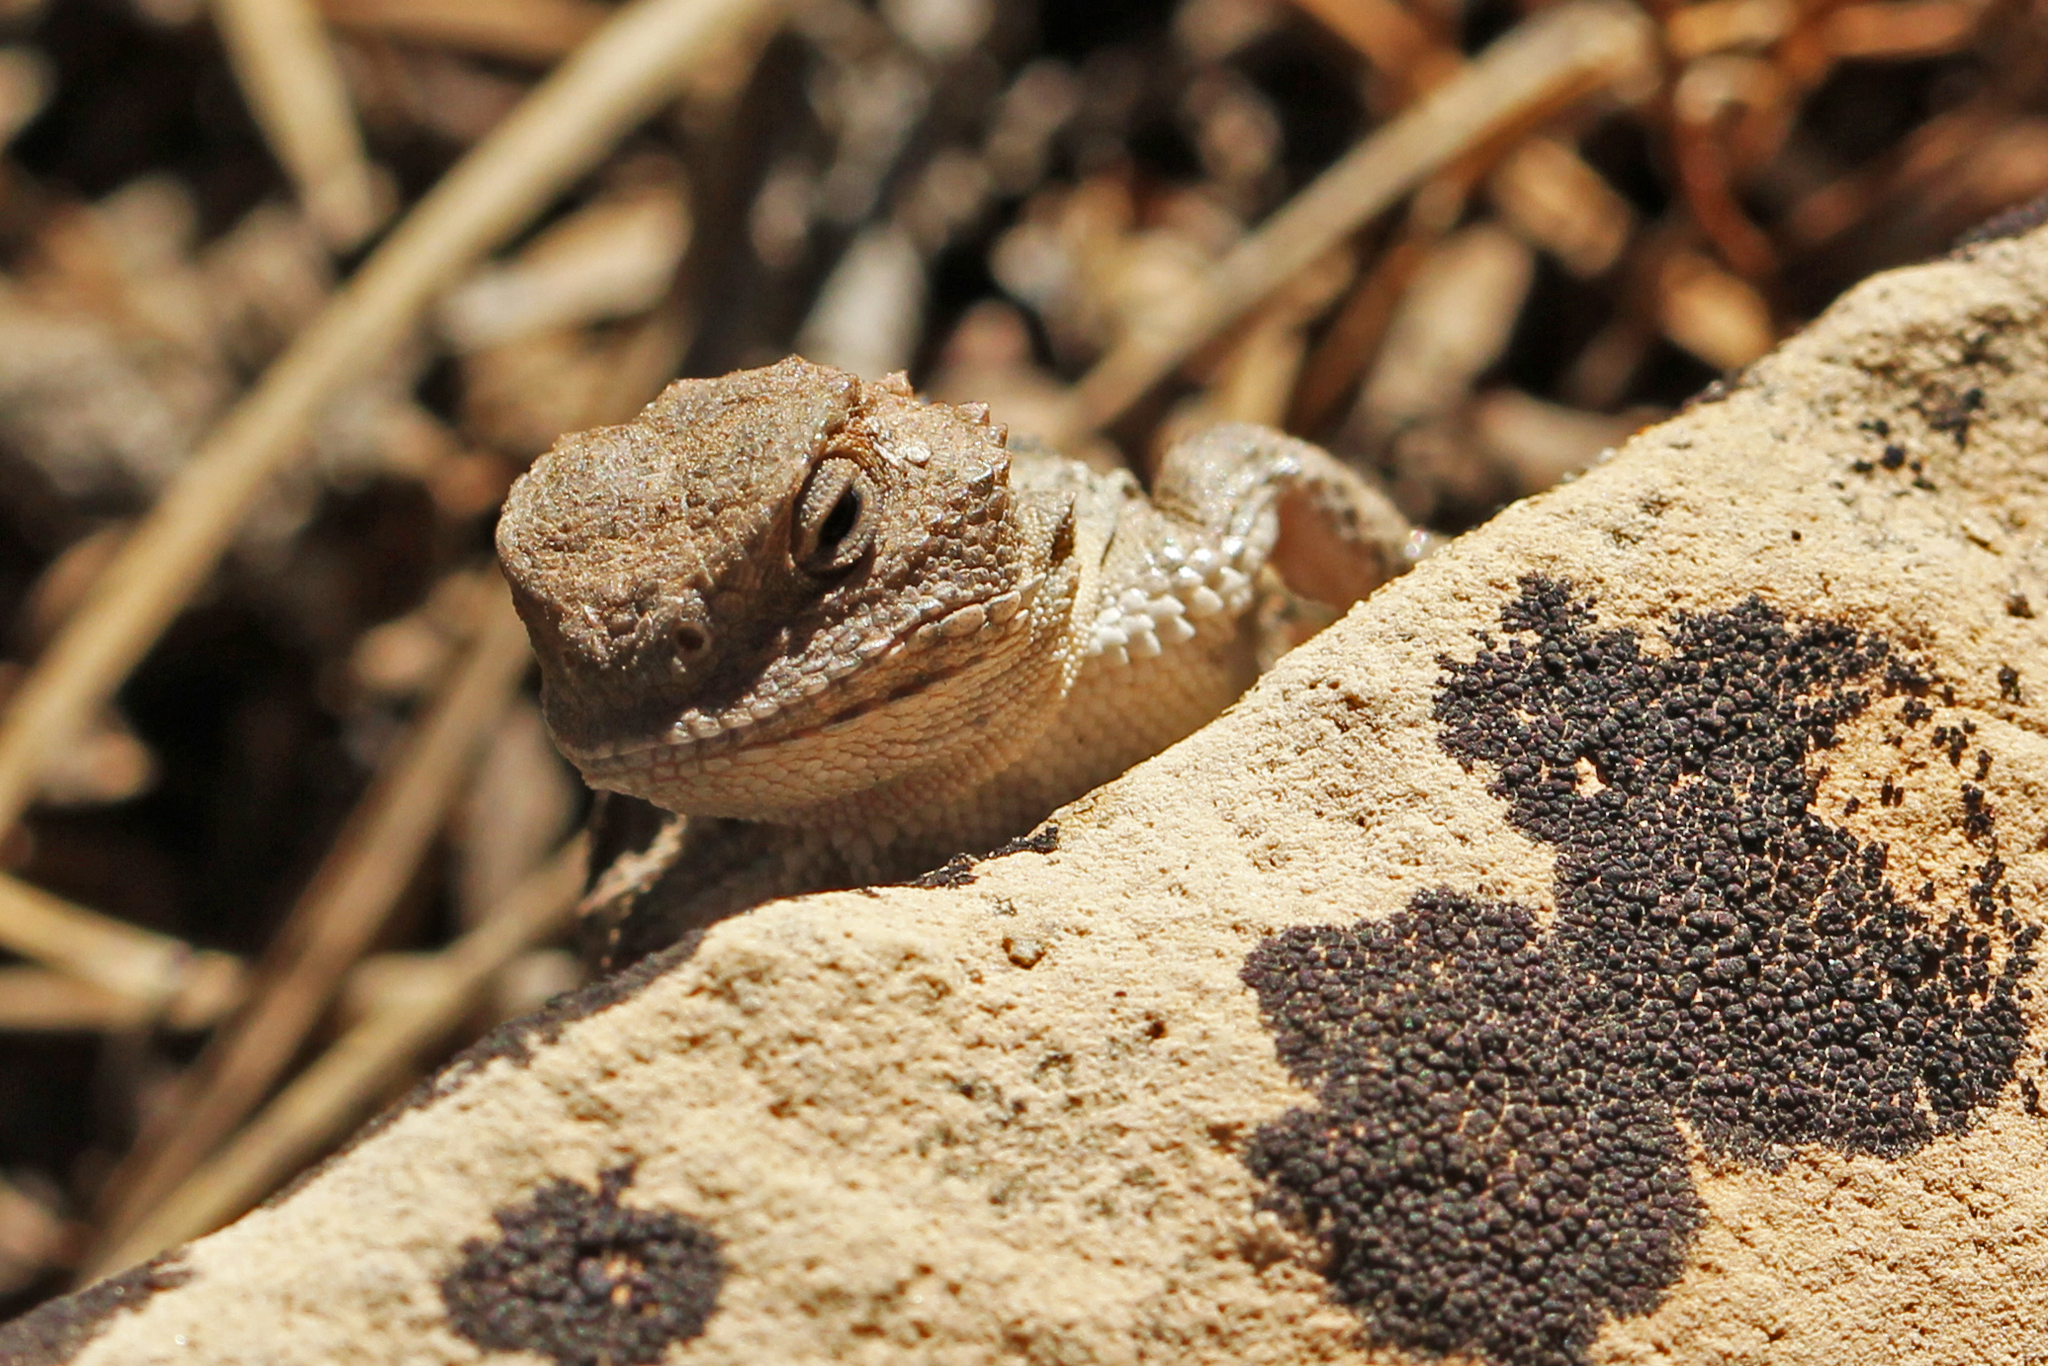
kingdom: Animalia
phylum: Chordata
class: Squamata
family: Phrynosomatidae
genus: Phrynosoma
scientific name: Phrynosoma hernandesi
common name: Greater short-horned lizard
